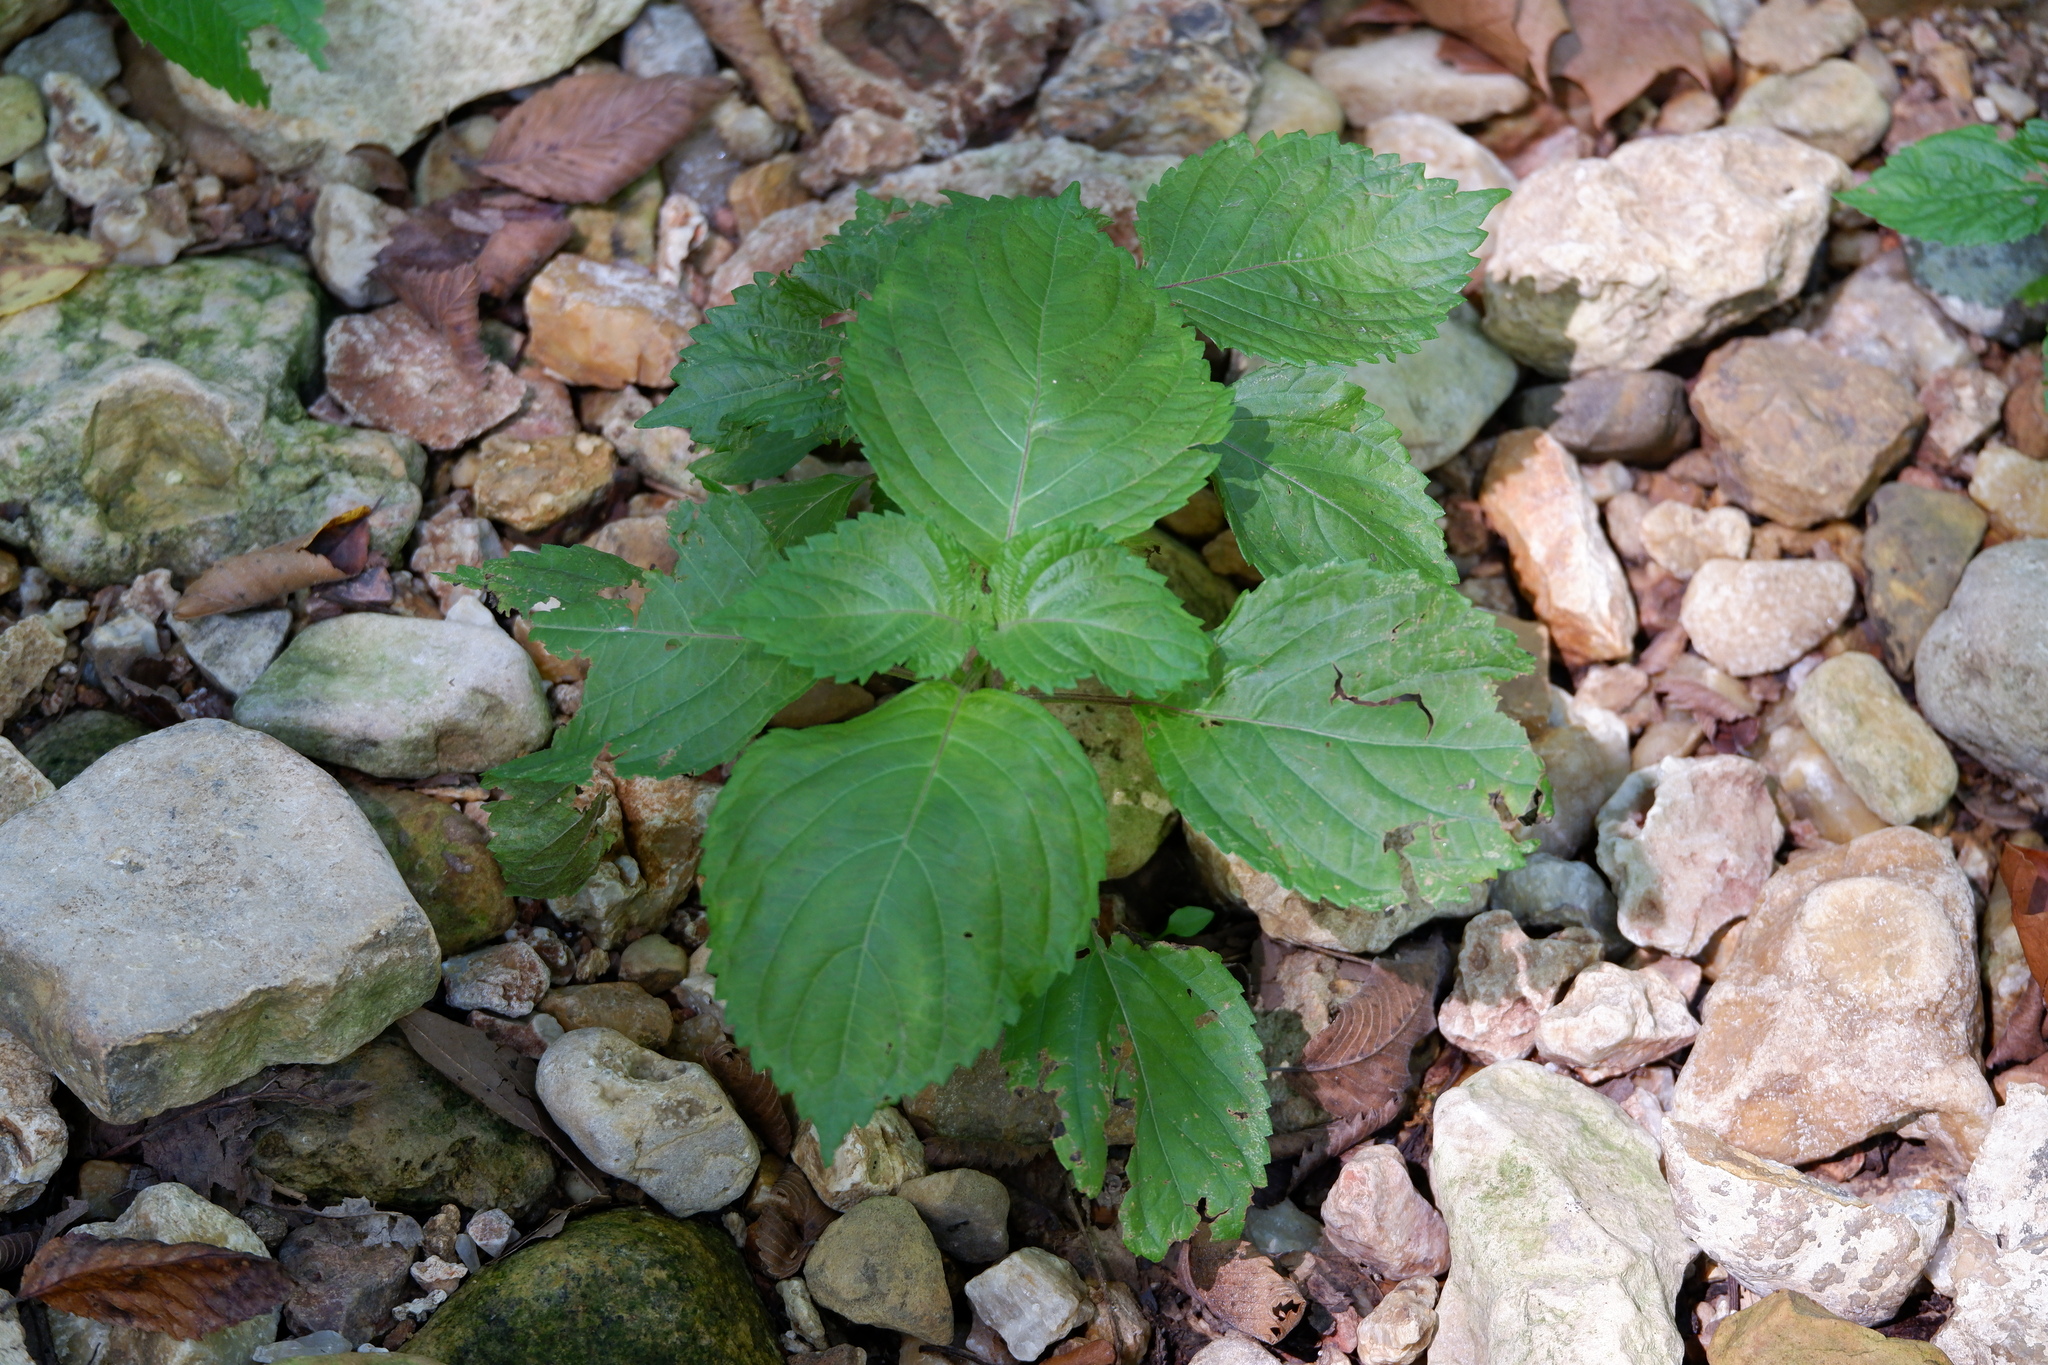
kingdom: Plantae
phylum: Tracheophyta
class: Magnoliopsida
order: Lamiales
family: Lamiaceae
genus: Perilla
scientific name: Perilla frutescens
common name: Perilla
